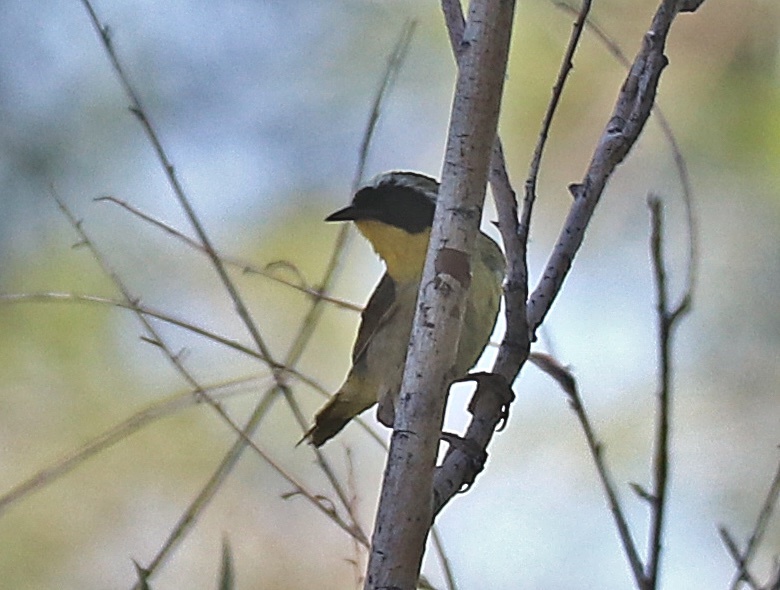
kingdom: Animalia
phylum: Chordata
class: Aves
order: Passeriformes
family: Parulidae
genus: Geothlypis
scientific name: Geothlypis trichas
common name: Common yellowthroat
